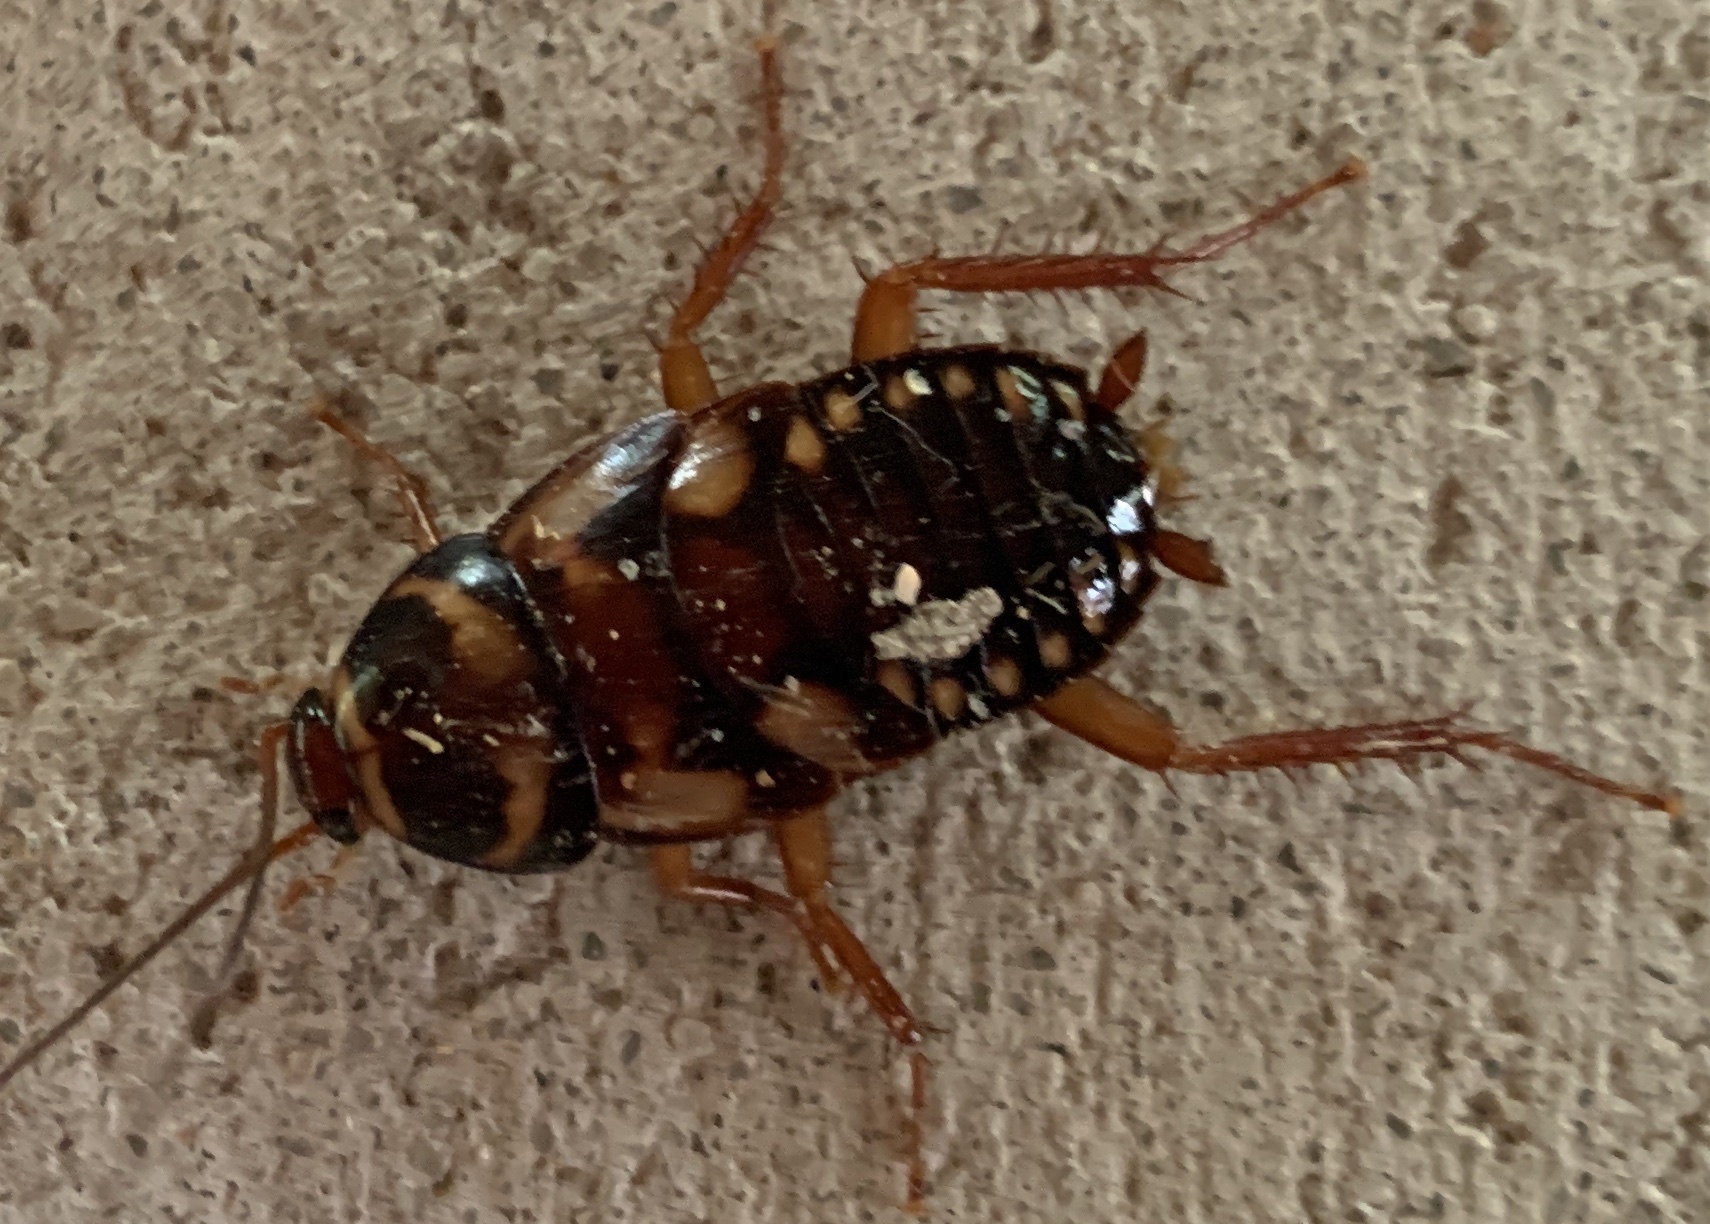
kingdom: Animalia
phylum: Arthropoda
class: Insecta
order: Blattodea
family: Blattidae
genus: Periplaneta
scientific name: Periplaneta australasiae
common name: Australian cockroach
